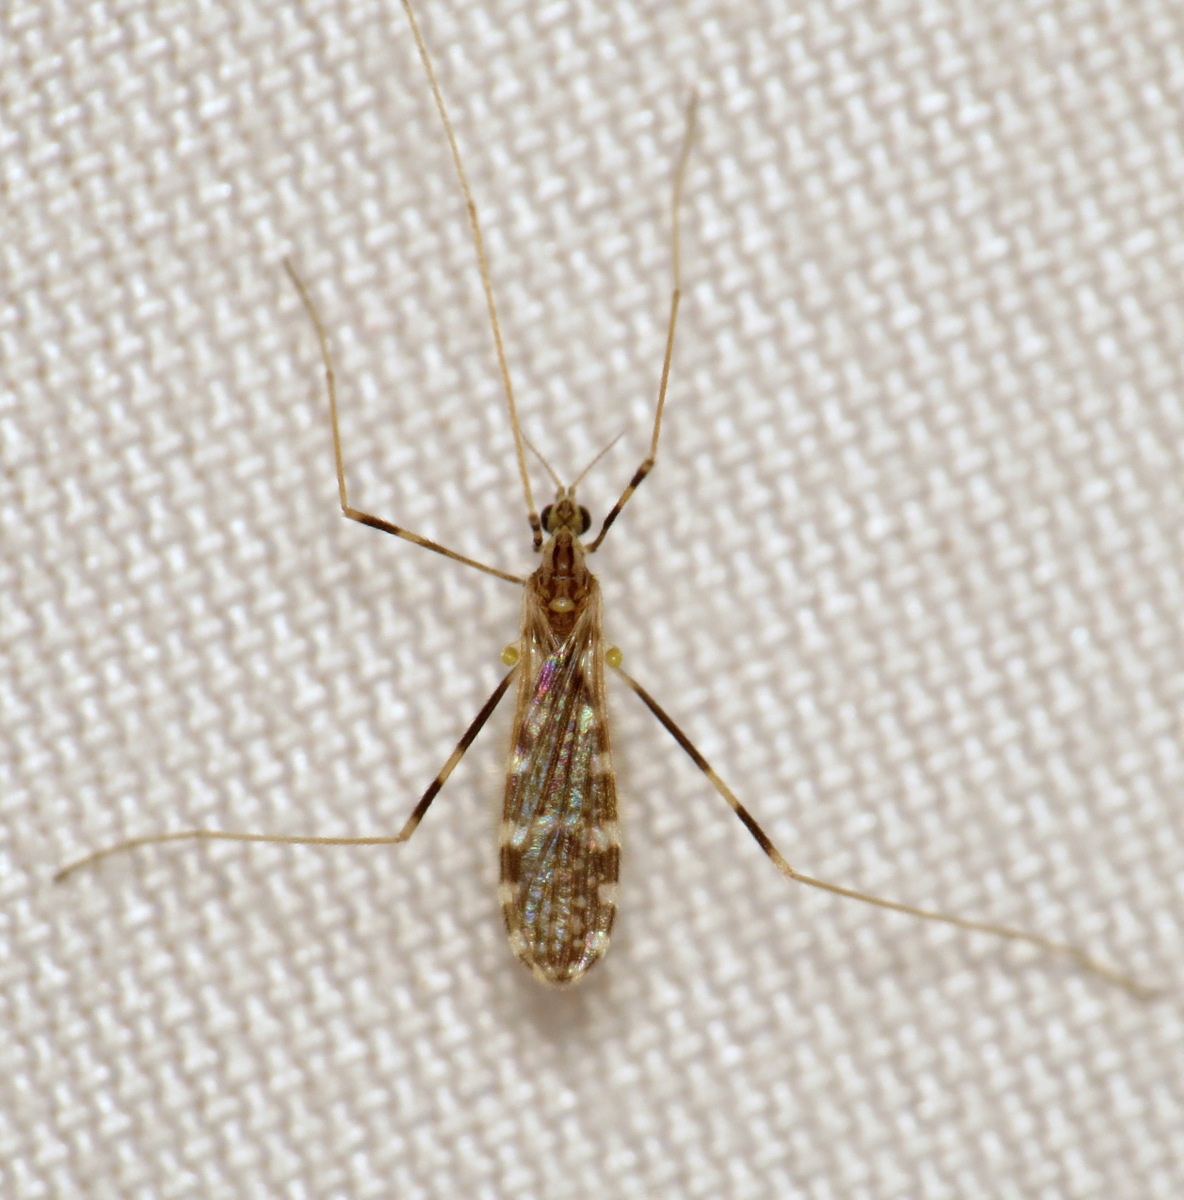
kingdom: Animalia
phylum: Arthropoda
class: Insecta
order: Diptera
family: Limoniidae
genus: Erioptera
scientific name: Erioptera caliptera
